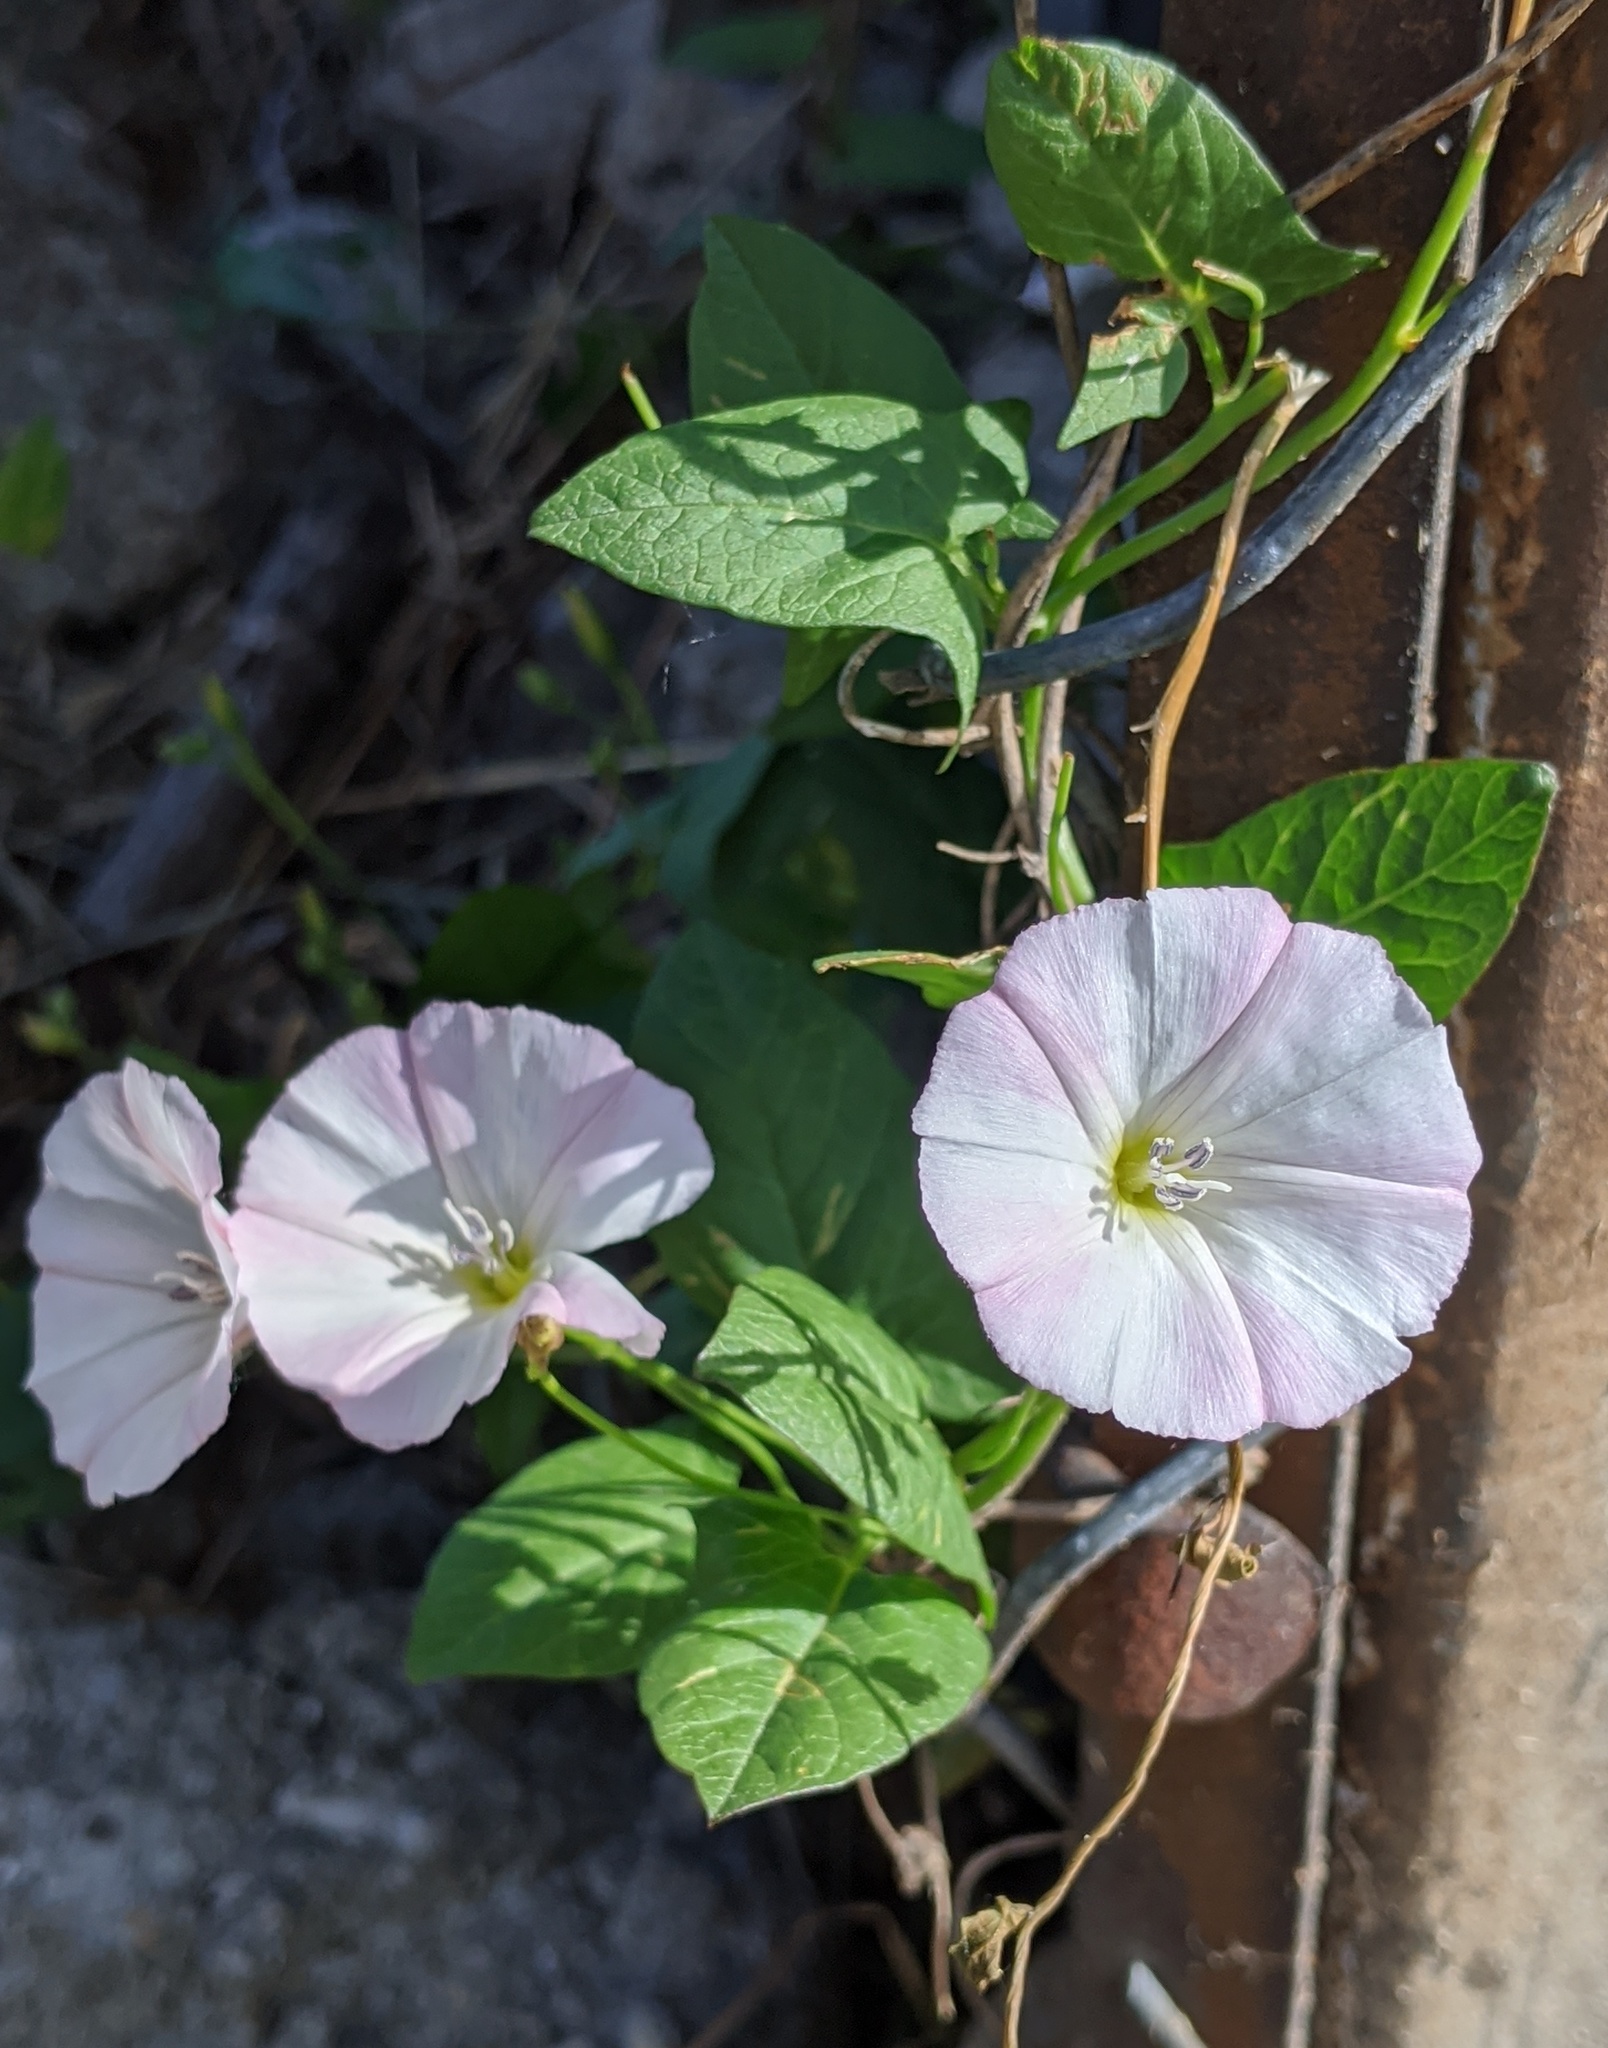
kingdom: Plantae
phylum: Tracheophyta
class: Magnoliopsida
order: Solanales
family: Convolvulaceae
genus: Convolvulus
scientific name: Convolvulus arvensis
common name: Field bindweed
